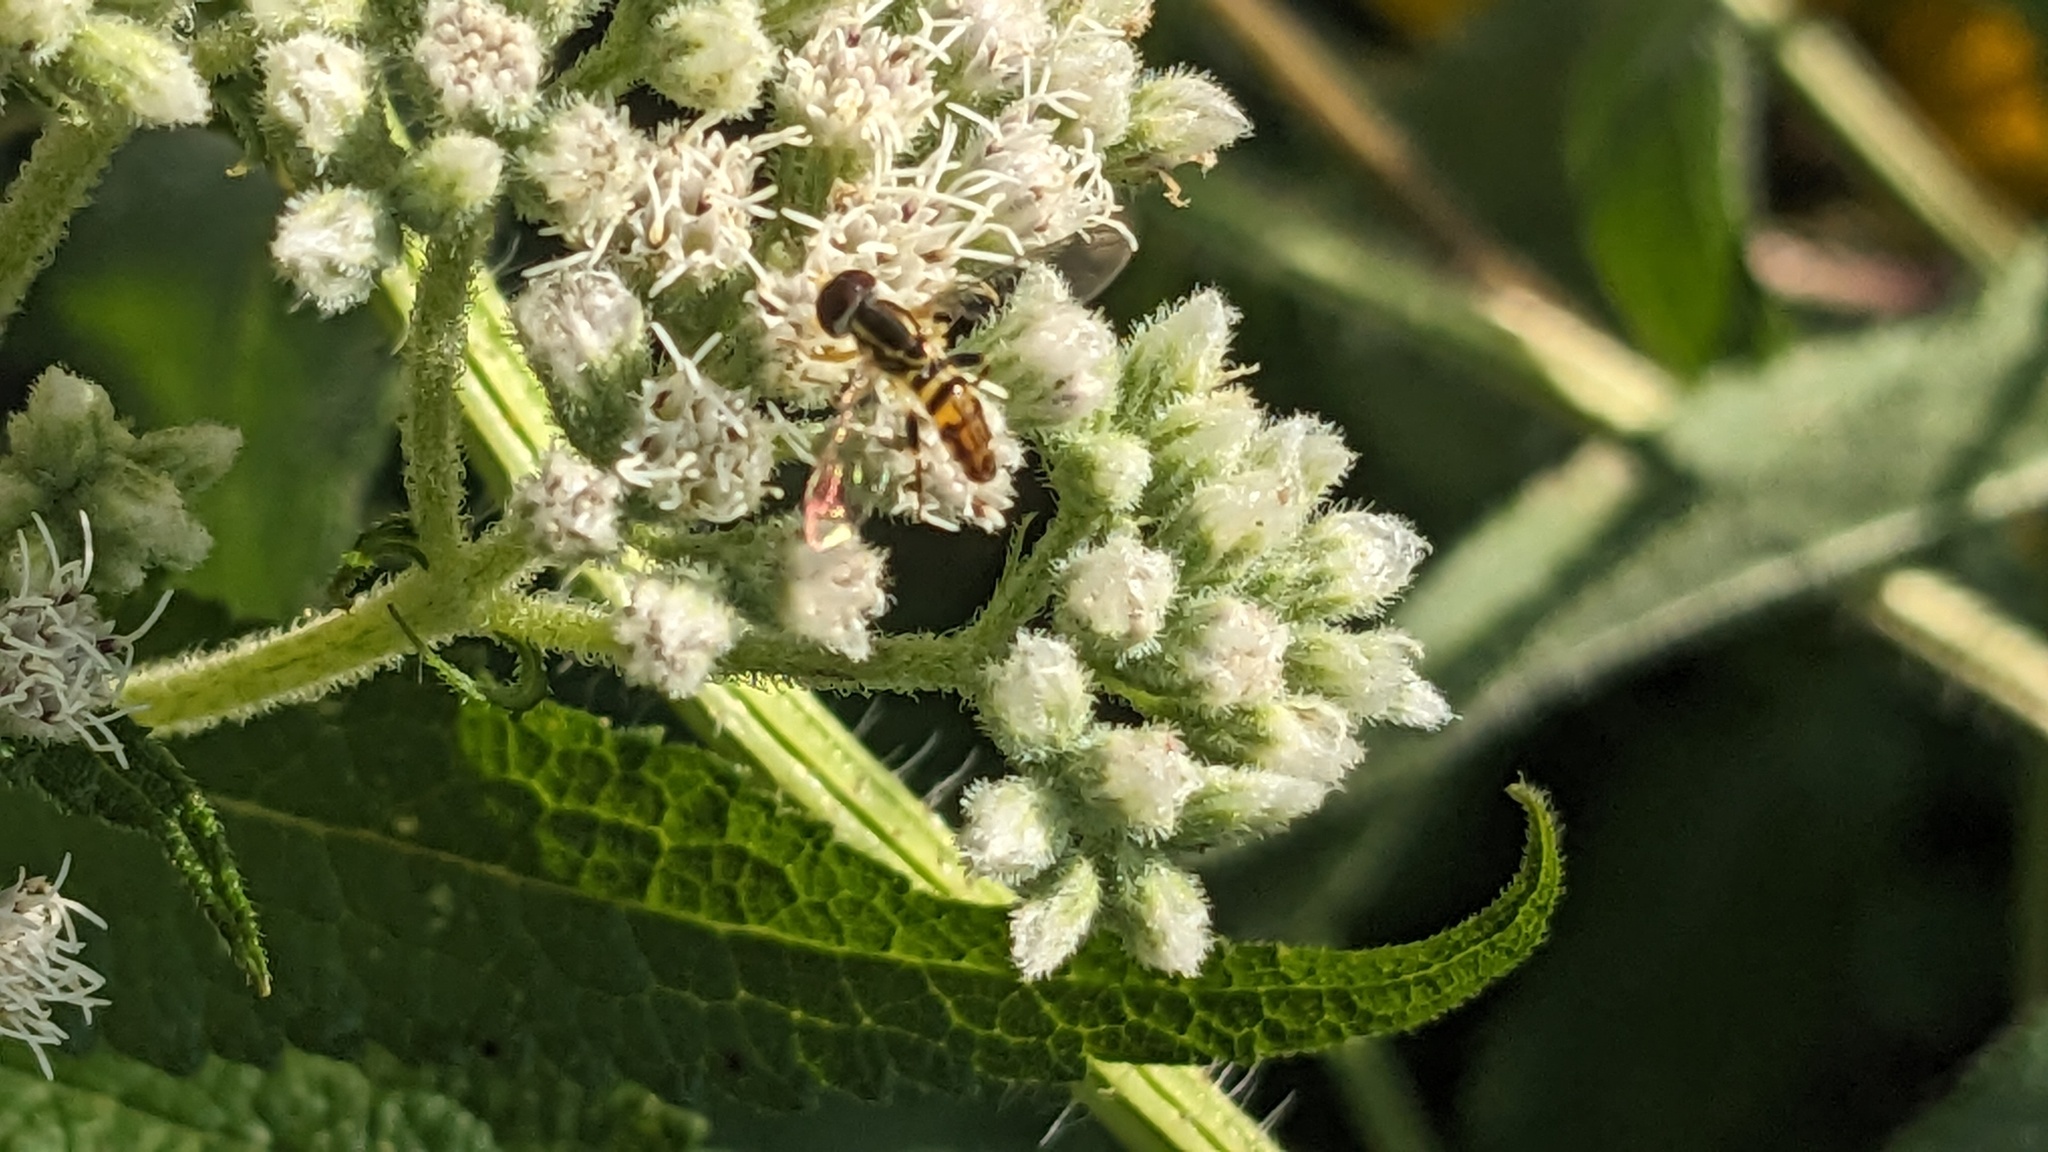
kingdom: Animalia
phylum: Arthropoda
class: Insecta
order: Diptera
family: Syrphidae
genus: Toxomerus
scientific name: Toxomerus geminatus
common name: Eastern calligrapher
